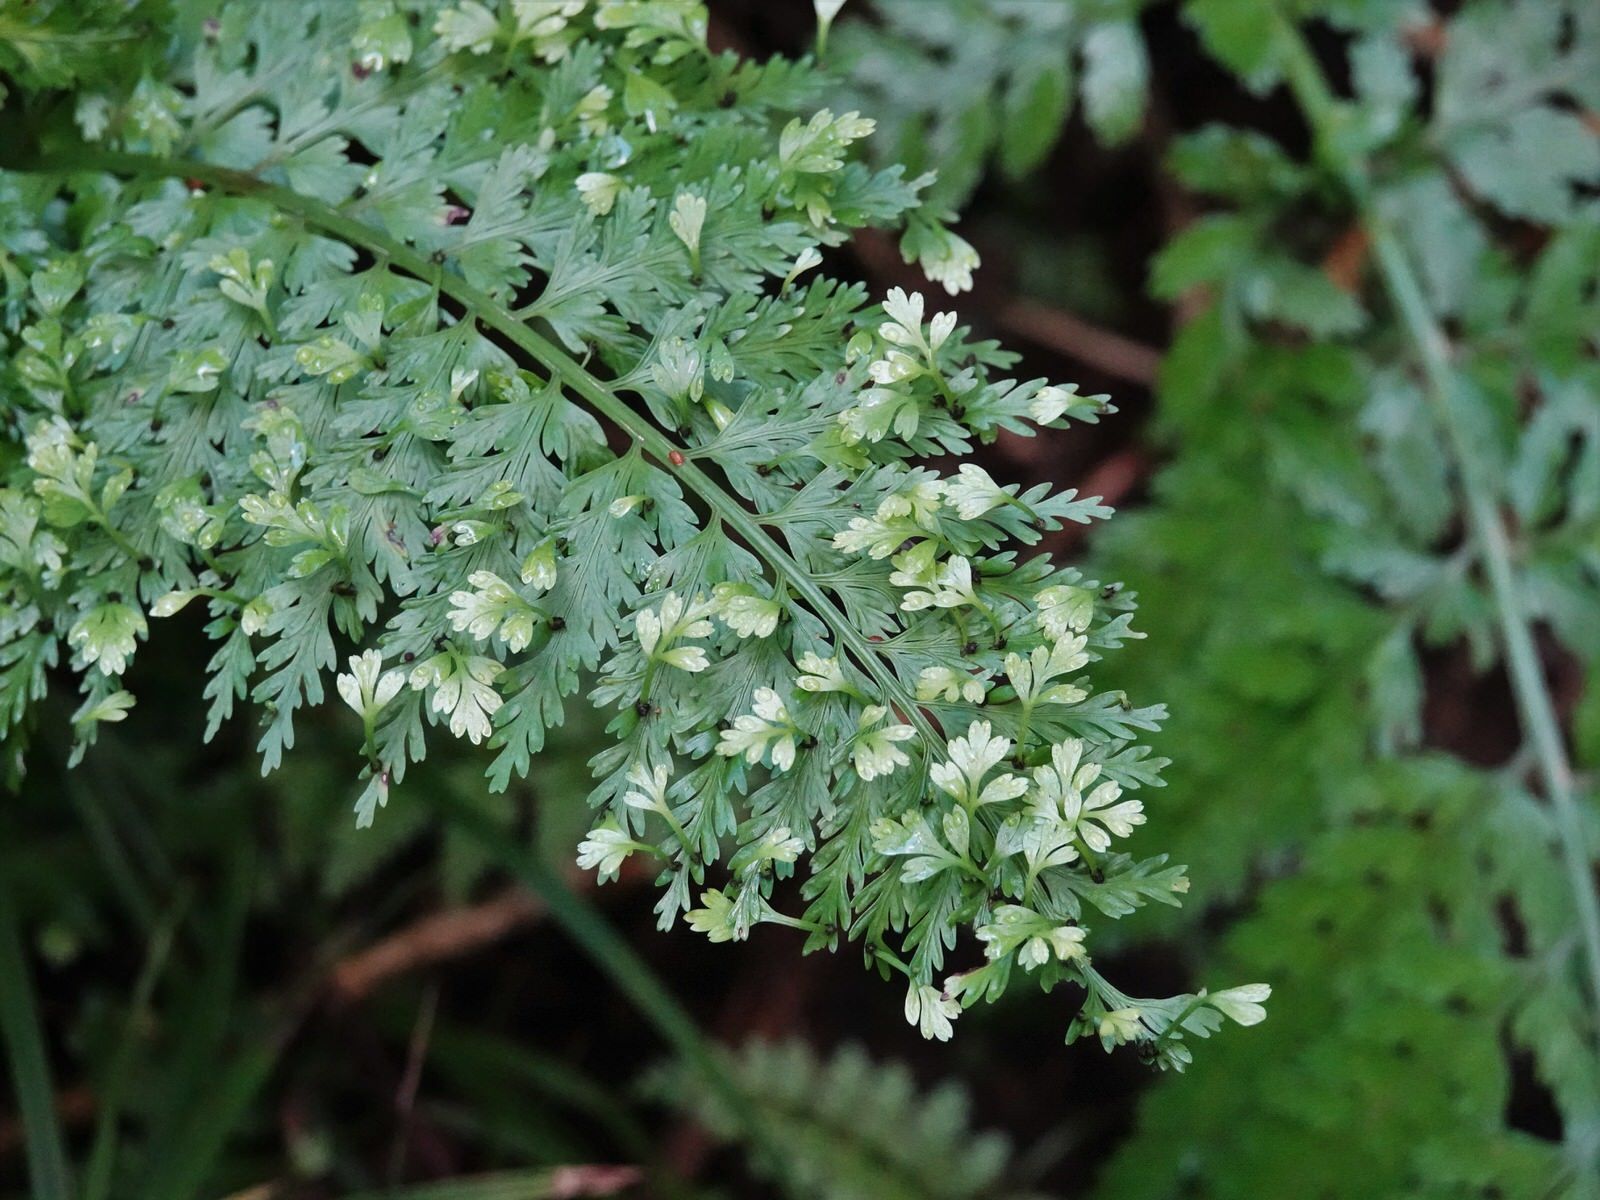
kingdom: Plantae
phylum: Tracheophyta
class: Polypodiopsida
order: Polypodiales
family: Aspleniaceae
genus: Asplenium
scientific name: Asplenium bulbiferum
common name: Mother fern
